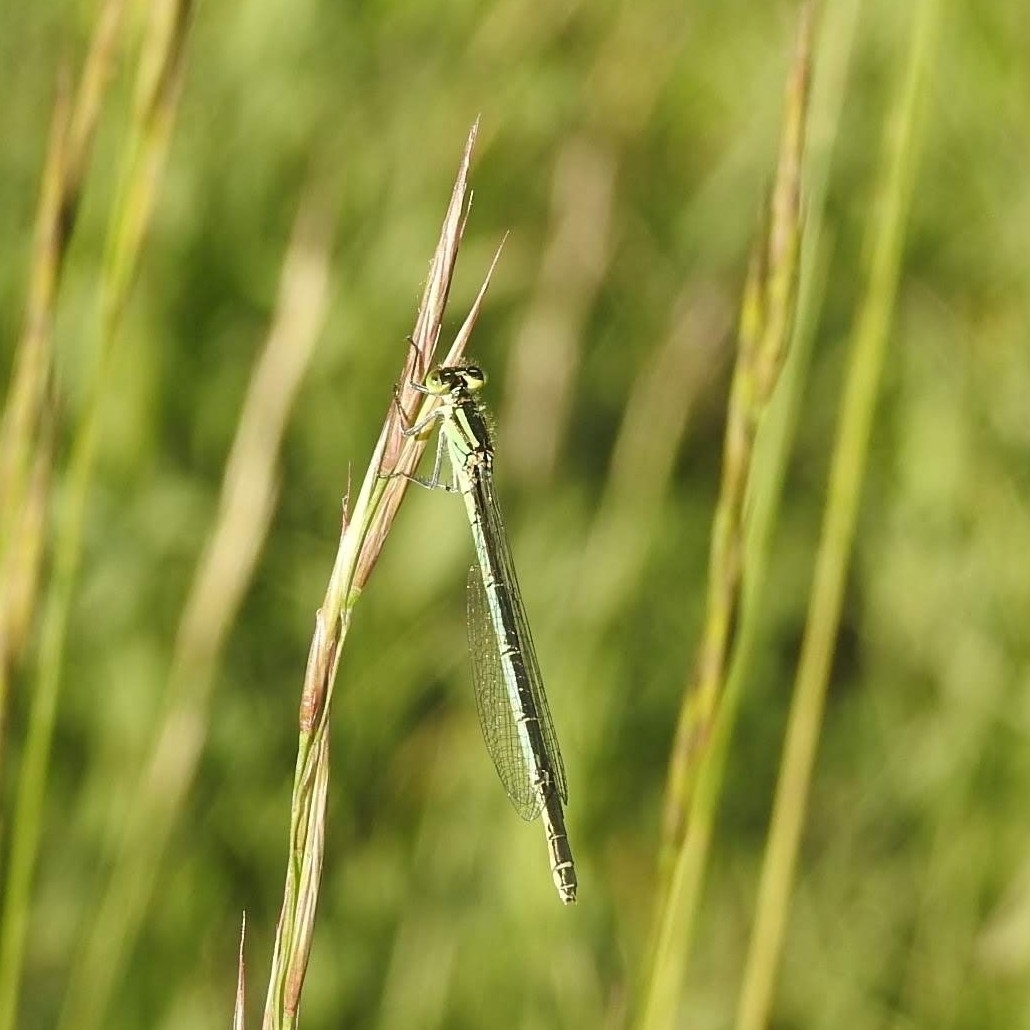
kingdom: Animalia
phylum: Arthropoda
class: Insecta
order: Odonata
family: Coenagrionidae
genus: Erythromma
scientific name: Erythromma lindenii
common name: Blue-eye
